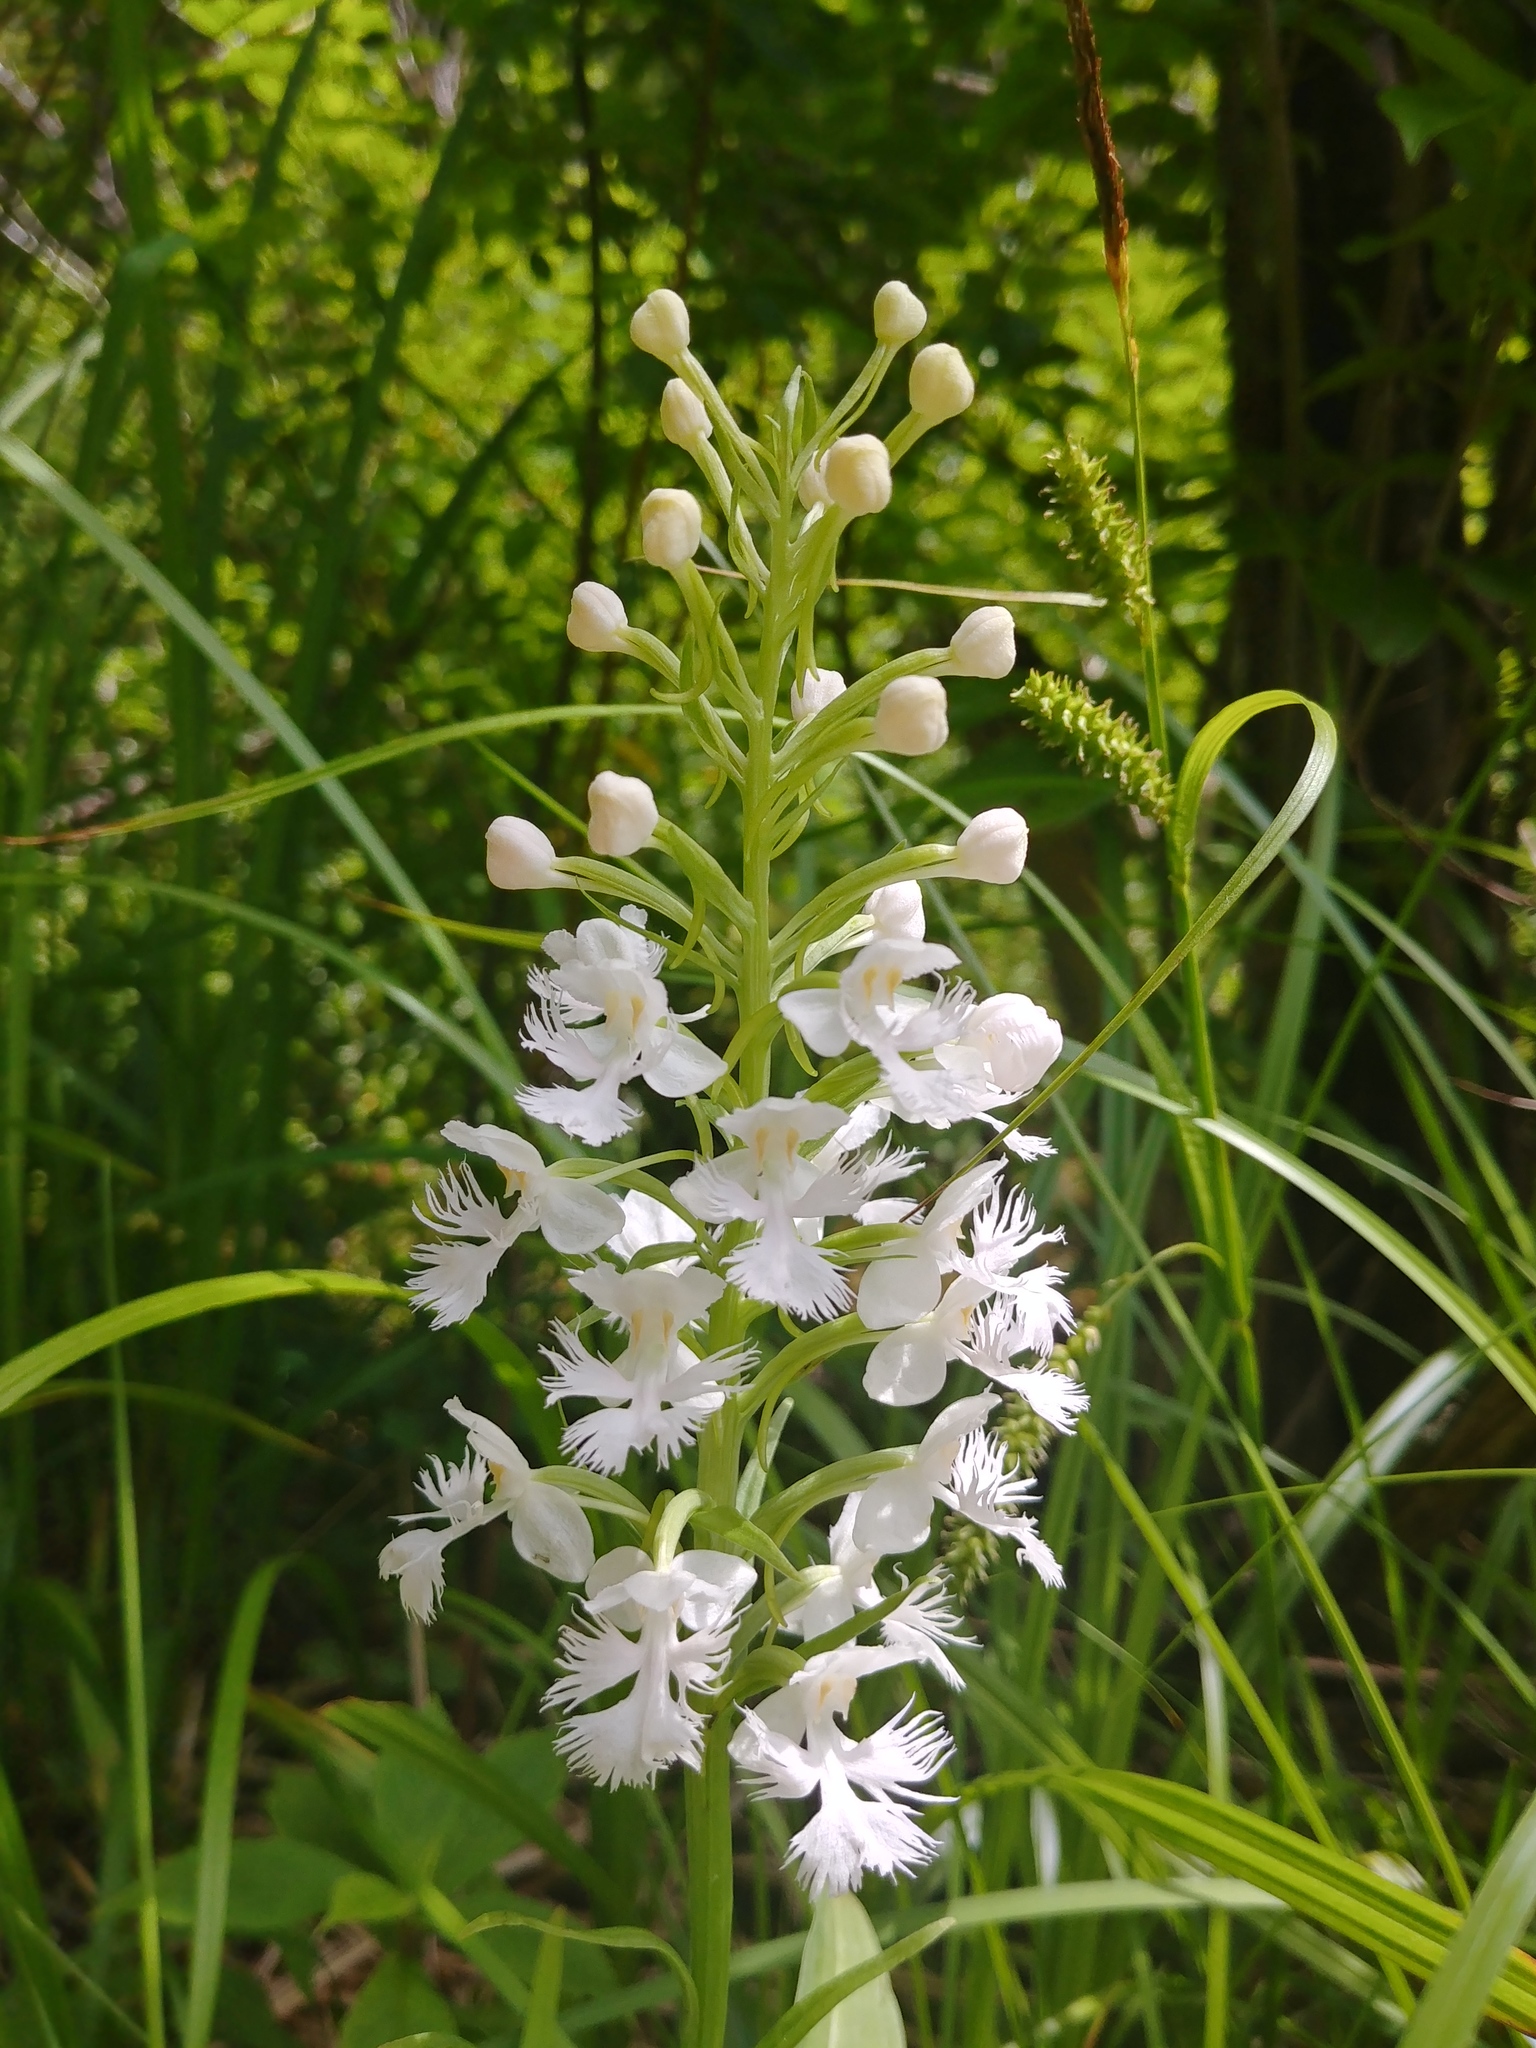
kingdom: Plantae
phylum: Tracheophyta
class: Liliopsida
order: Asparagales
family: Orchidaceae
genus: Platanthera
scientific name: Platanthera grandiflora
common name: Greater purple fringed orchid
